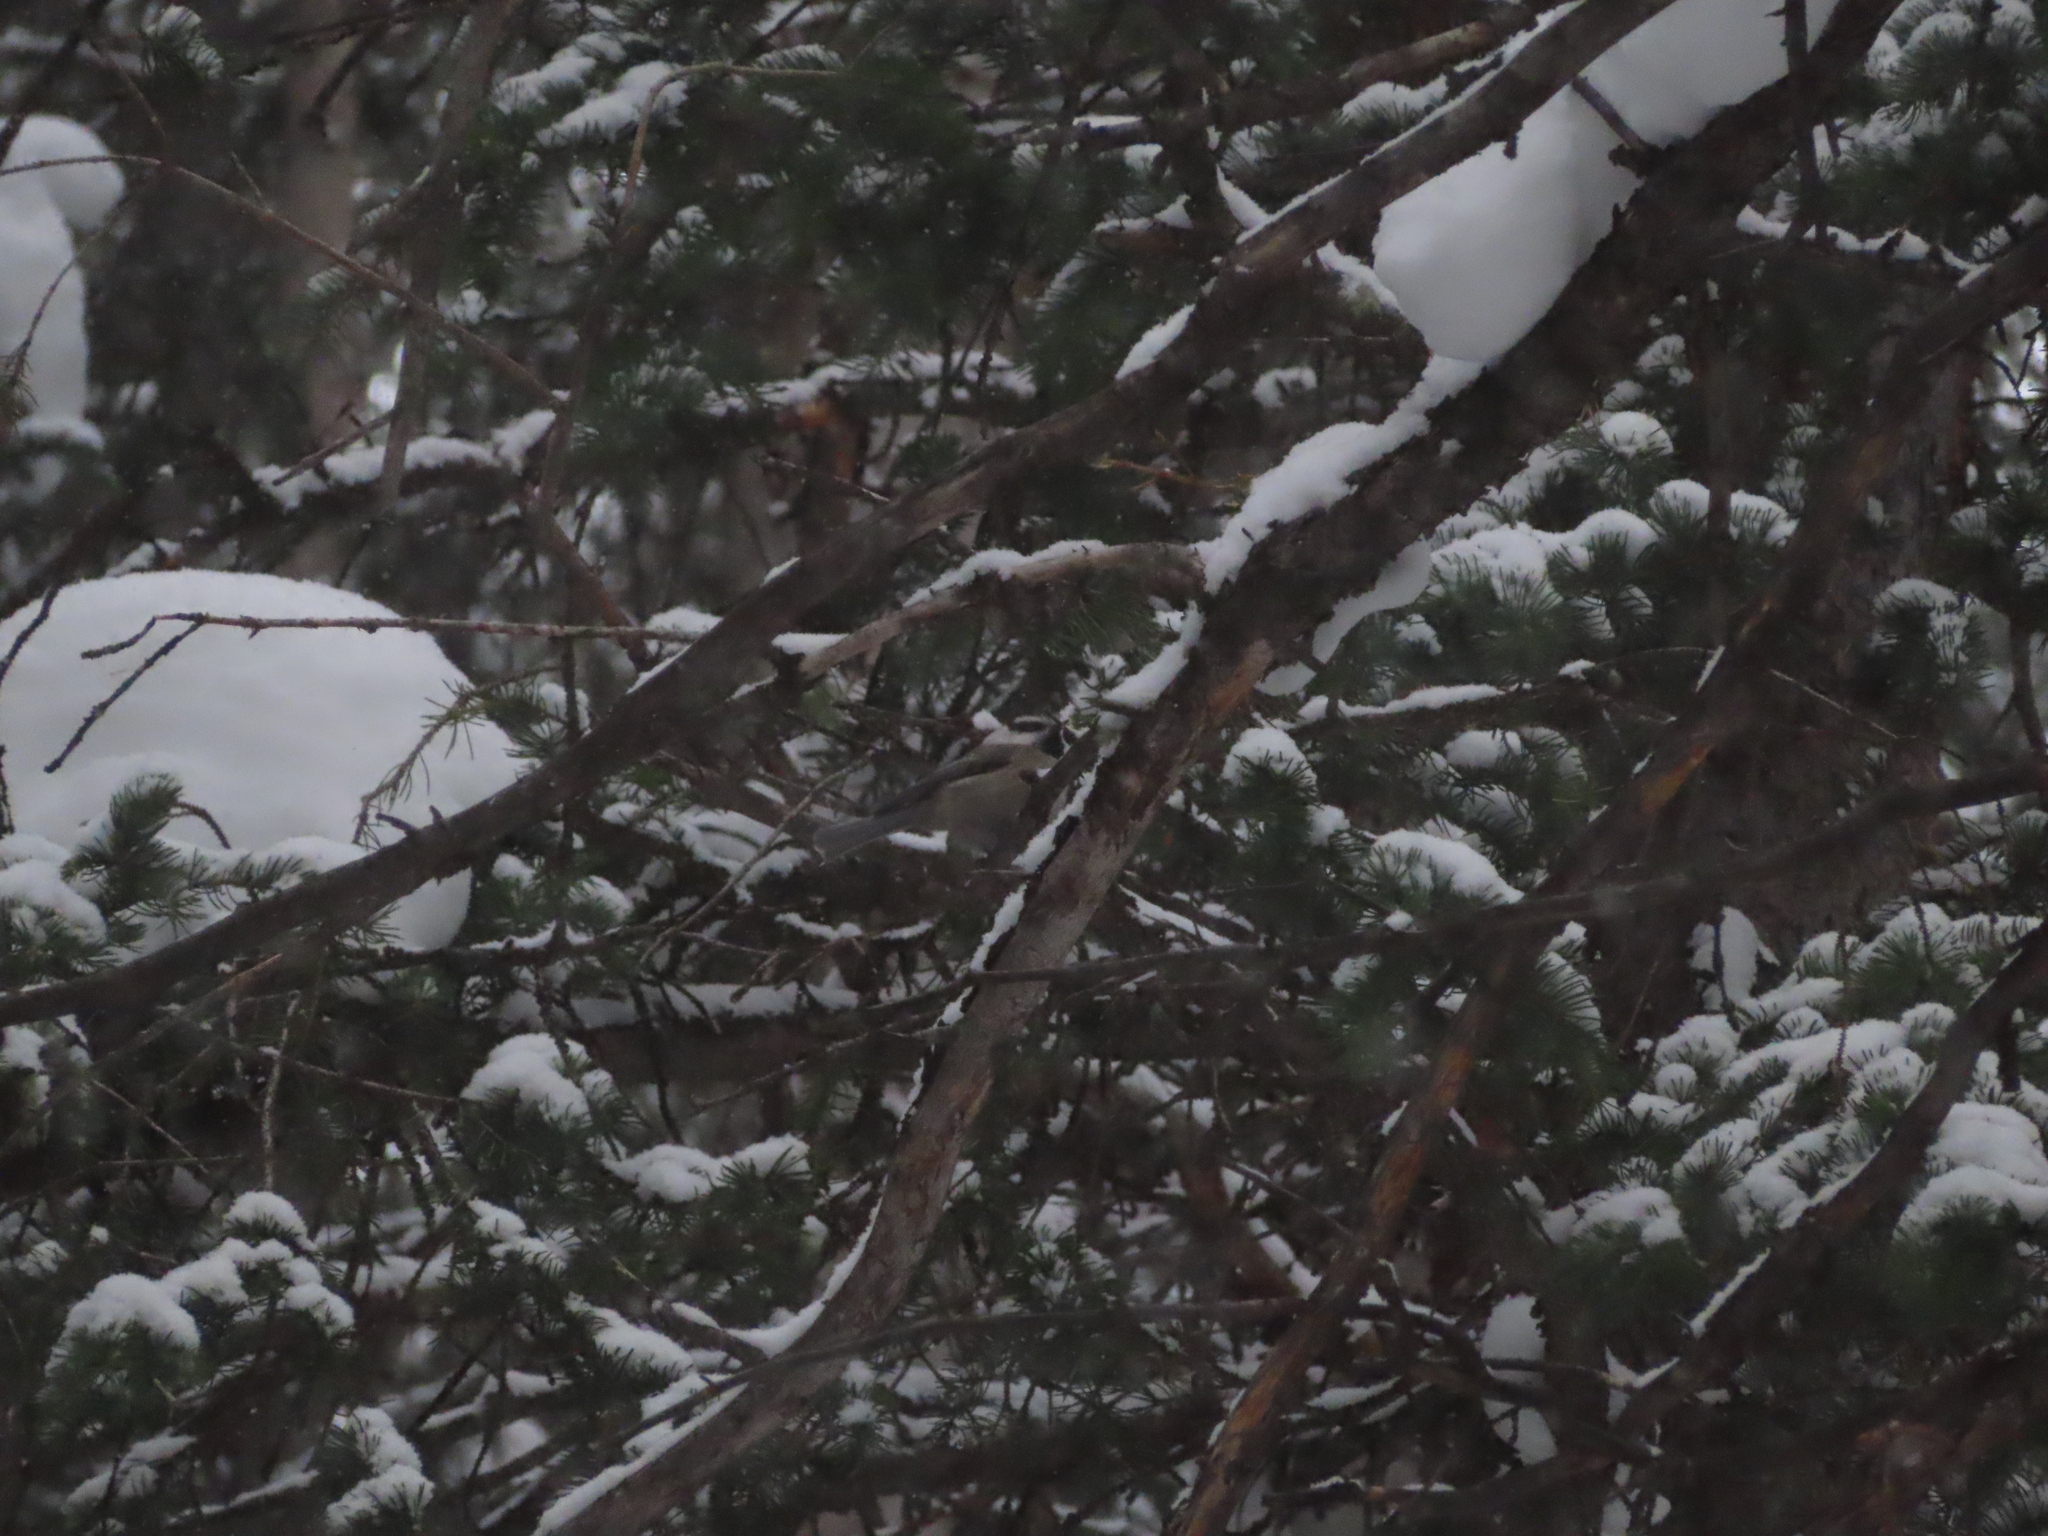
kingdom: Animalia
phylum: Chordata
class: Aves
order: Passeriformes
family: Paridae
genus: Poecile
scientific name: Poecile gambeli
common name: Mountain chickadee
